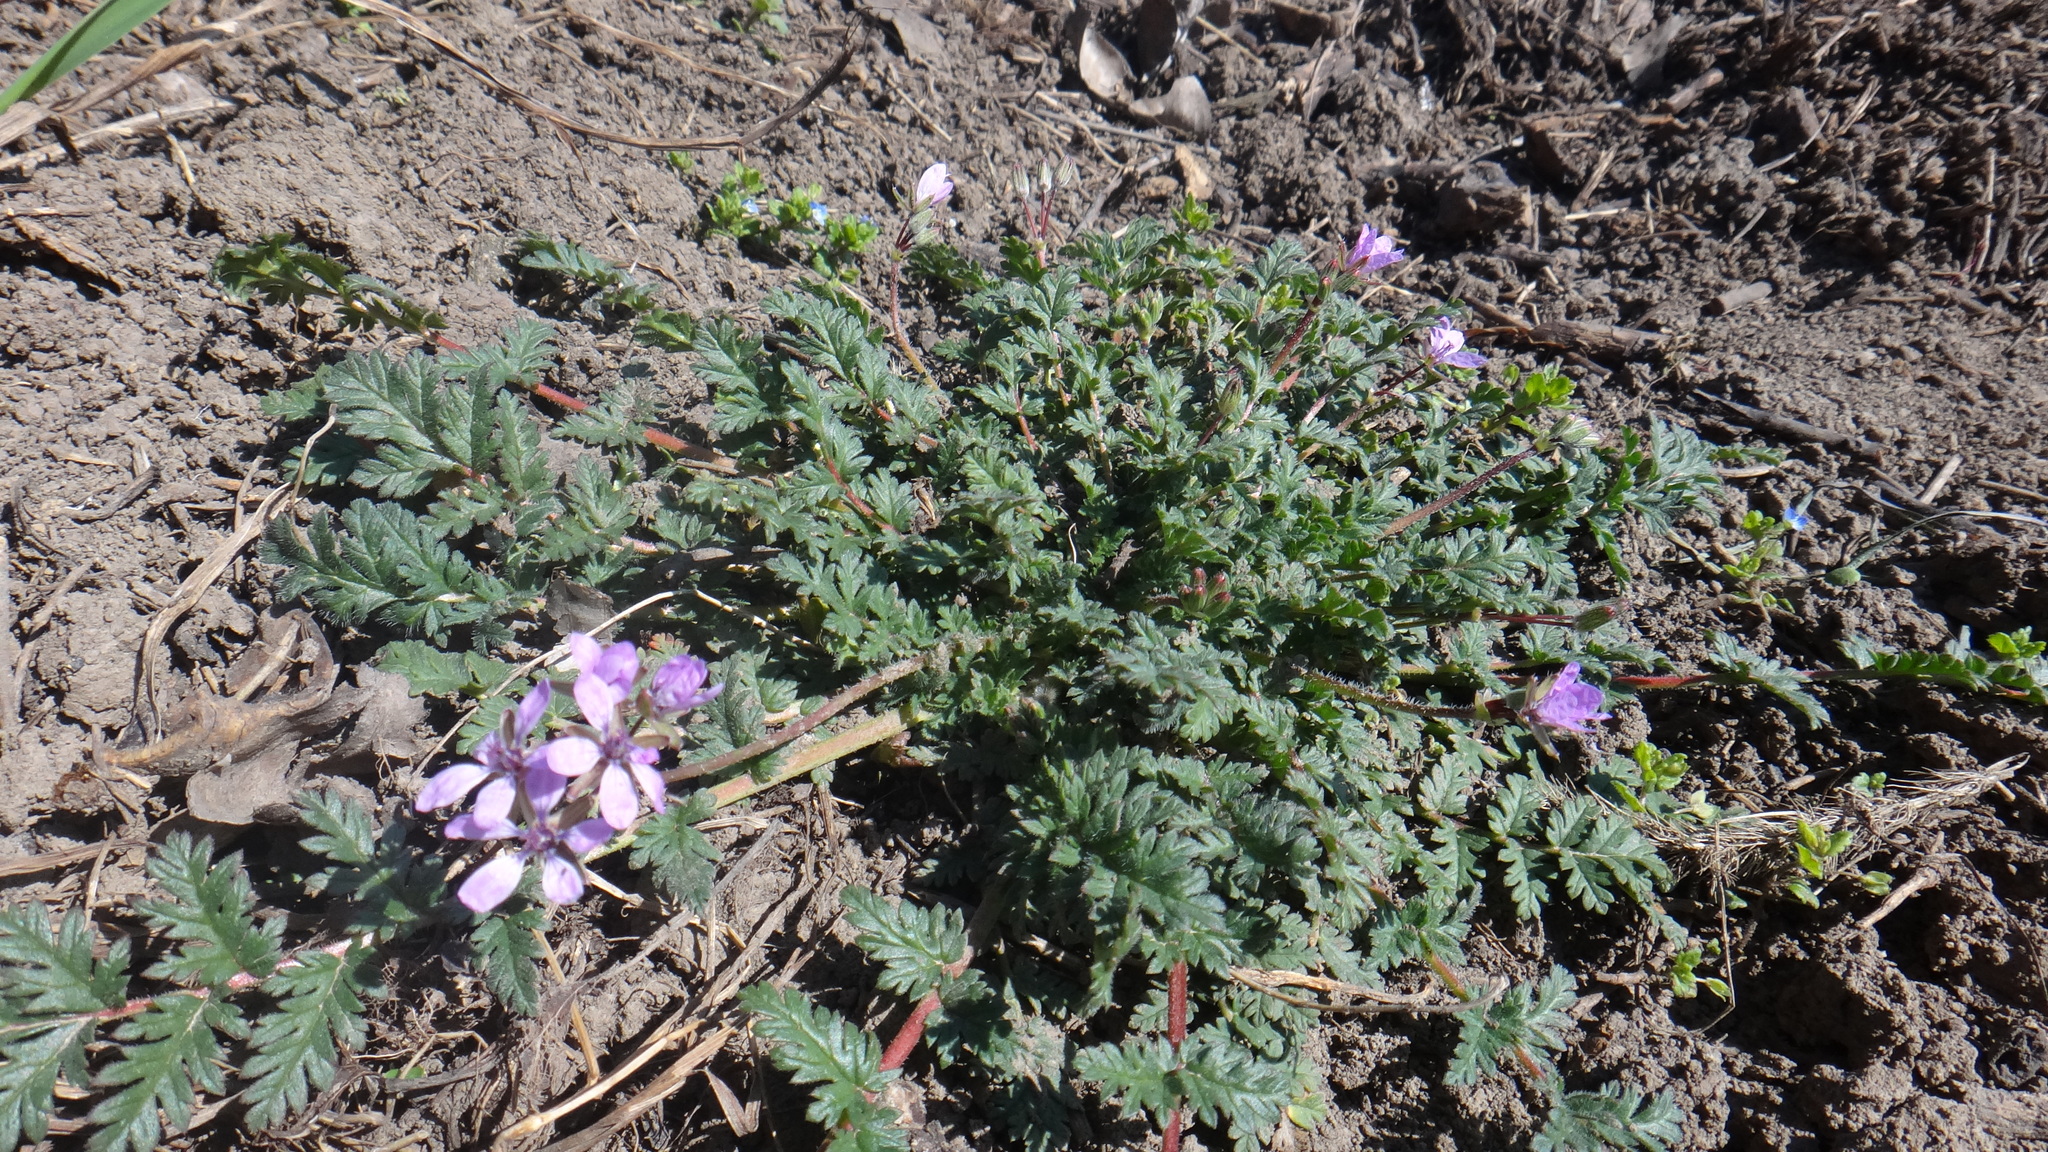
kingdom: Plantae
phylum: Tracheophyta
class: Magnoliopsida
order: Geraniales
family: Geraniaceae
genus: Erodium
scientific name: Erodium cicutarium
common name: Common stork's-bill
